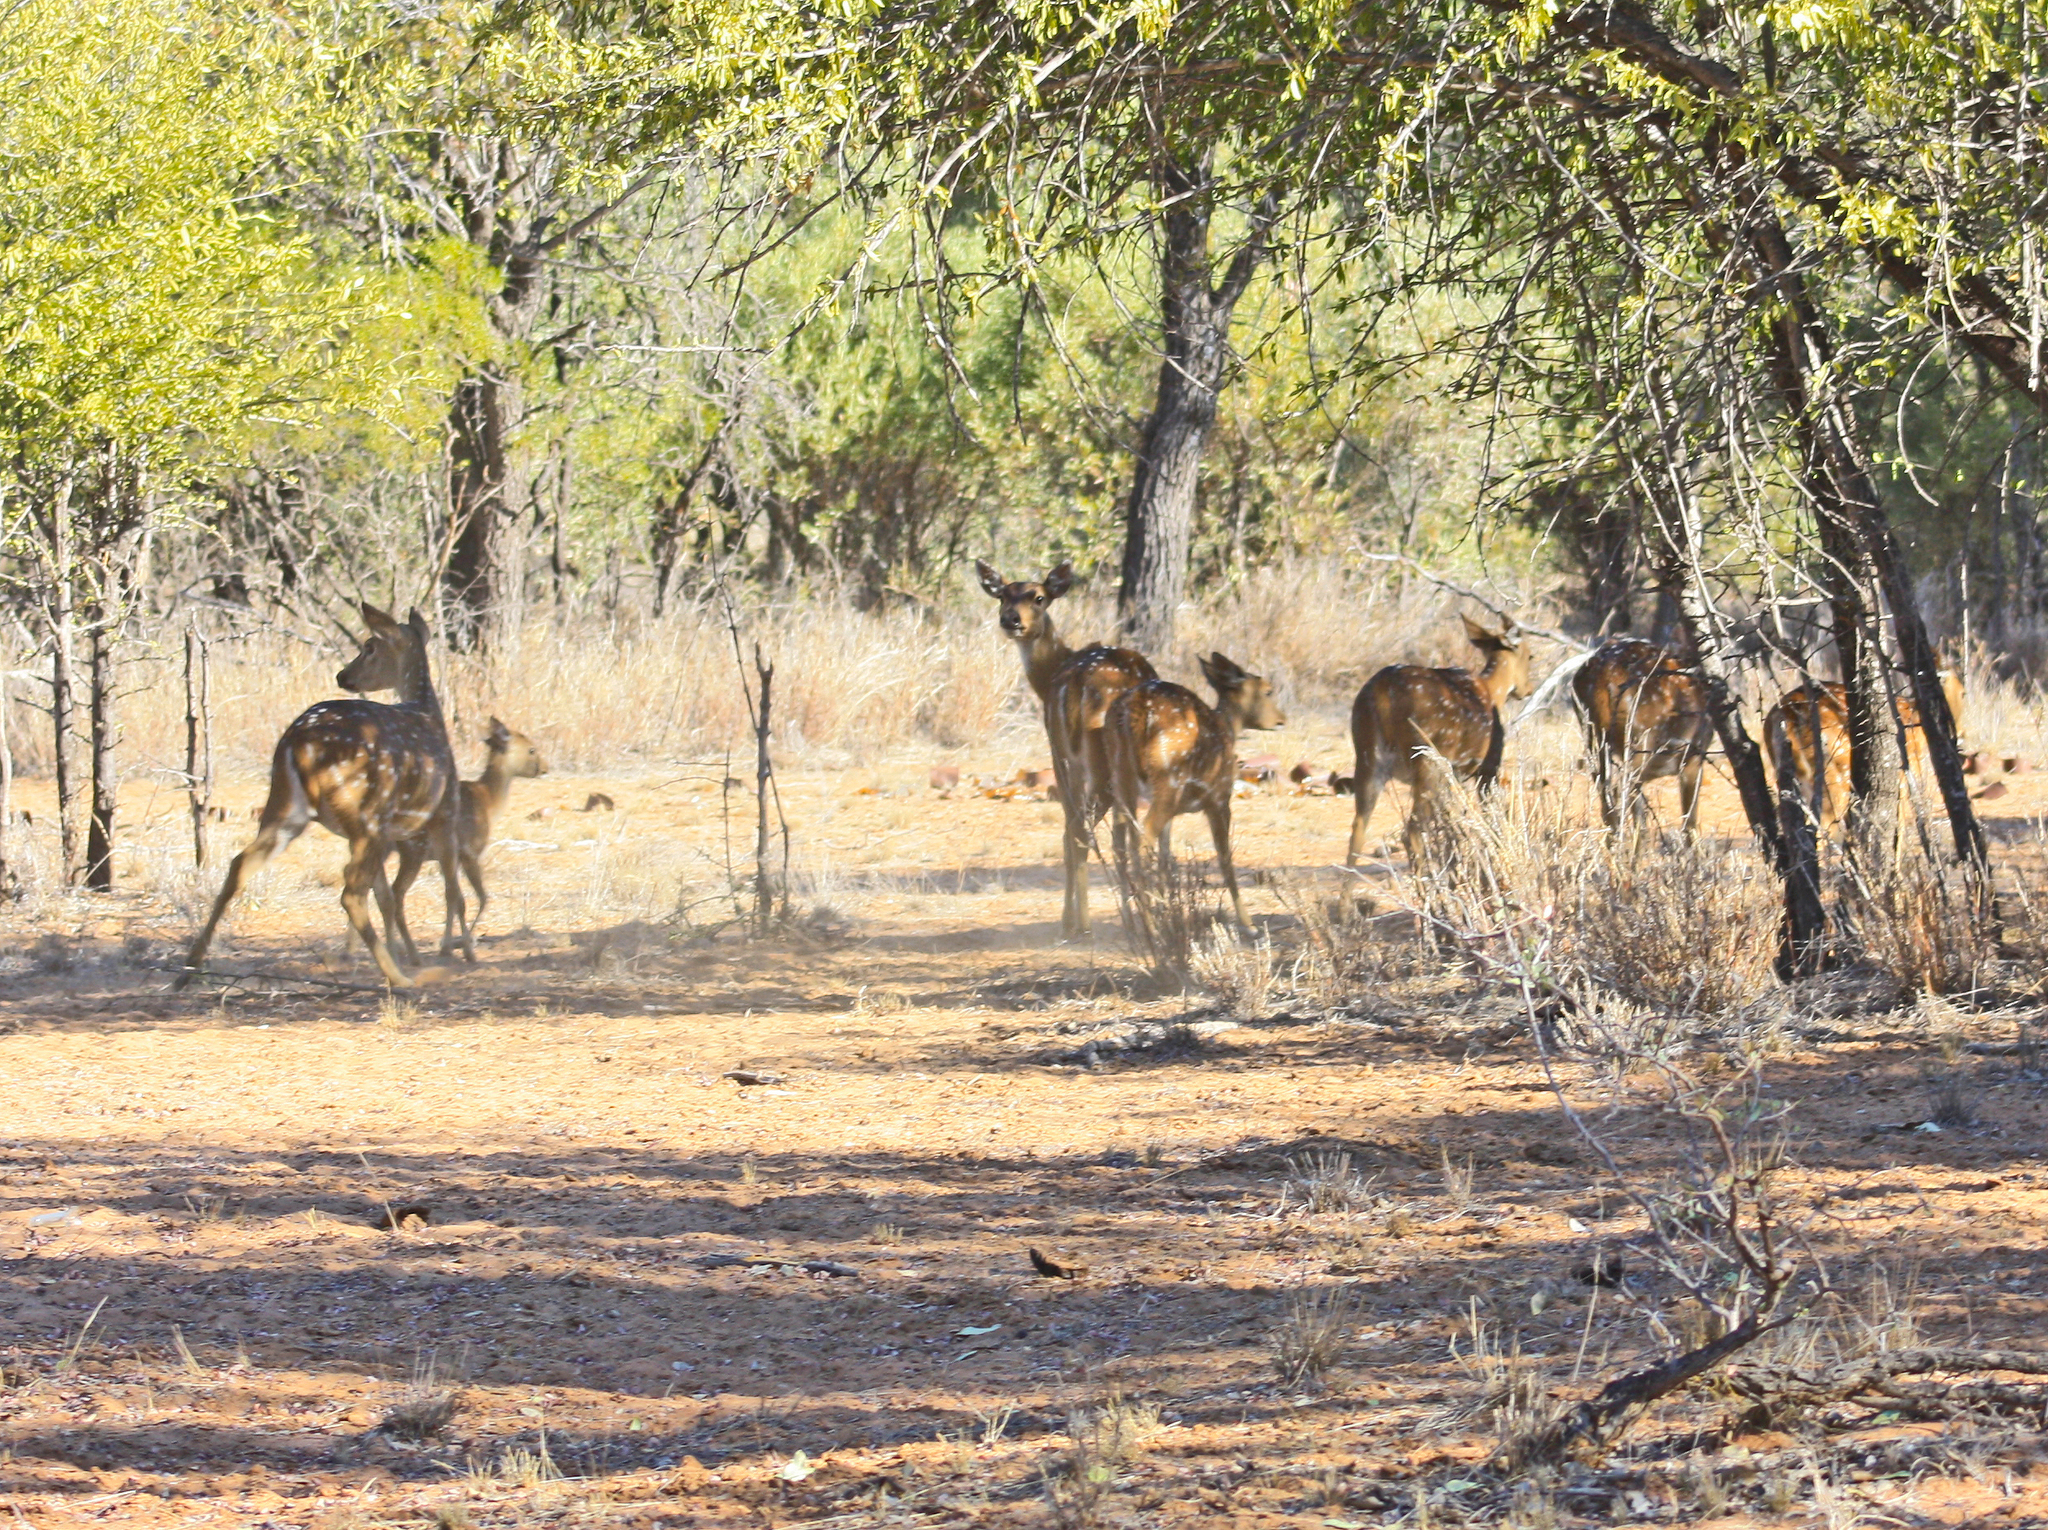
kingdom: Animalia
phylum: Chordata
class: Mammalia
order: Artiodactyla
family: Cervidae
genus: Axis
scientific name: Axis axis
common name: Chital
